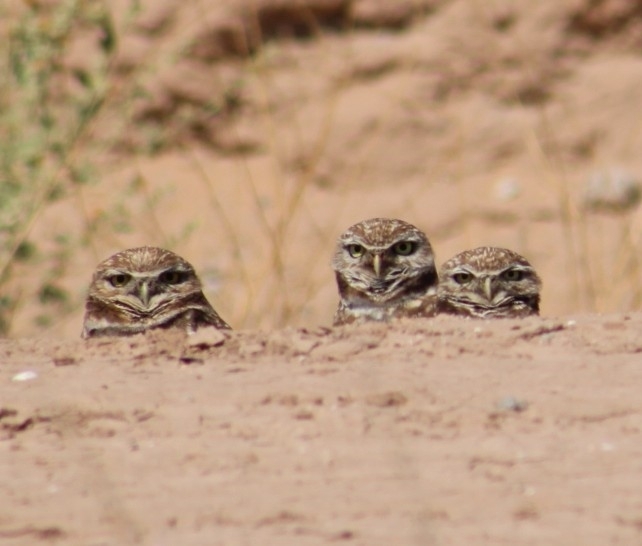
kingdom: Animalia
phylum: Chordata
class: Aves
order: Strigiformes
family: Strigidae
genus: Athene
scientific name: Athene cunicularia
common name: Burrowing owl
